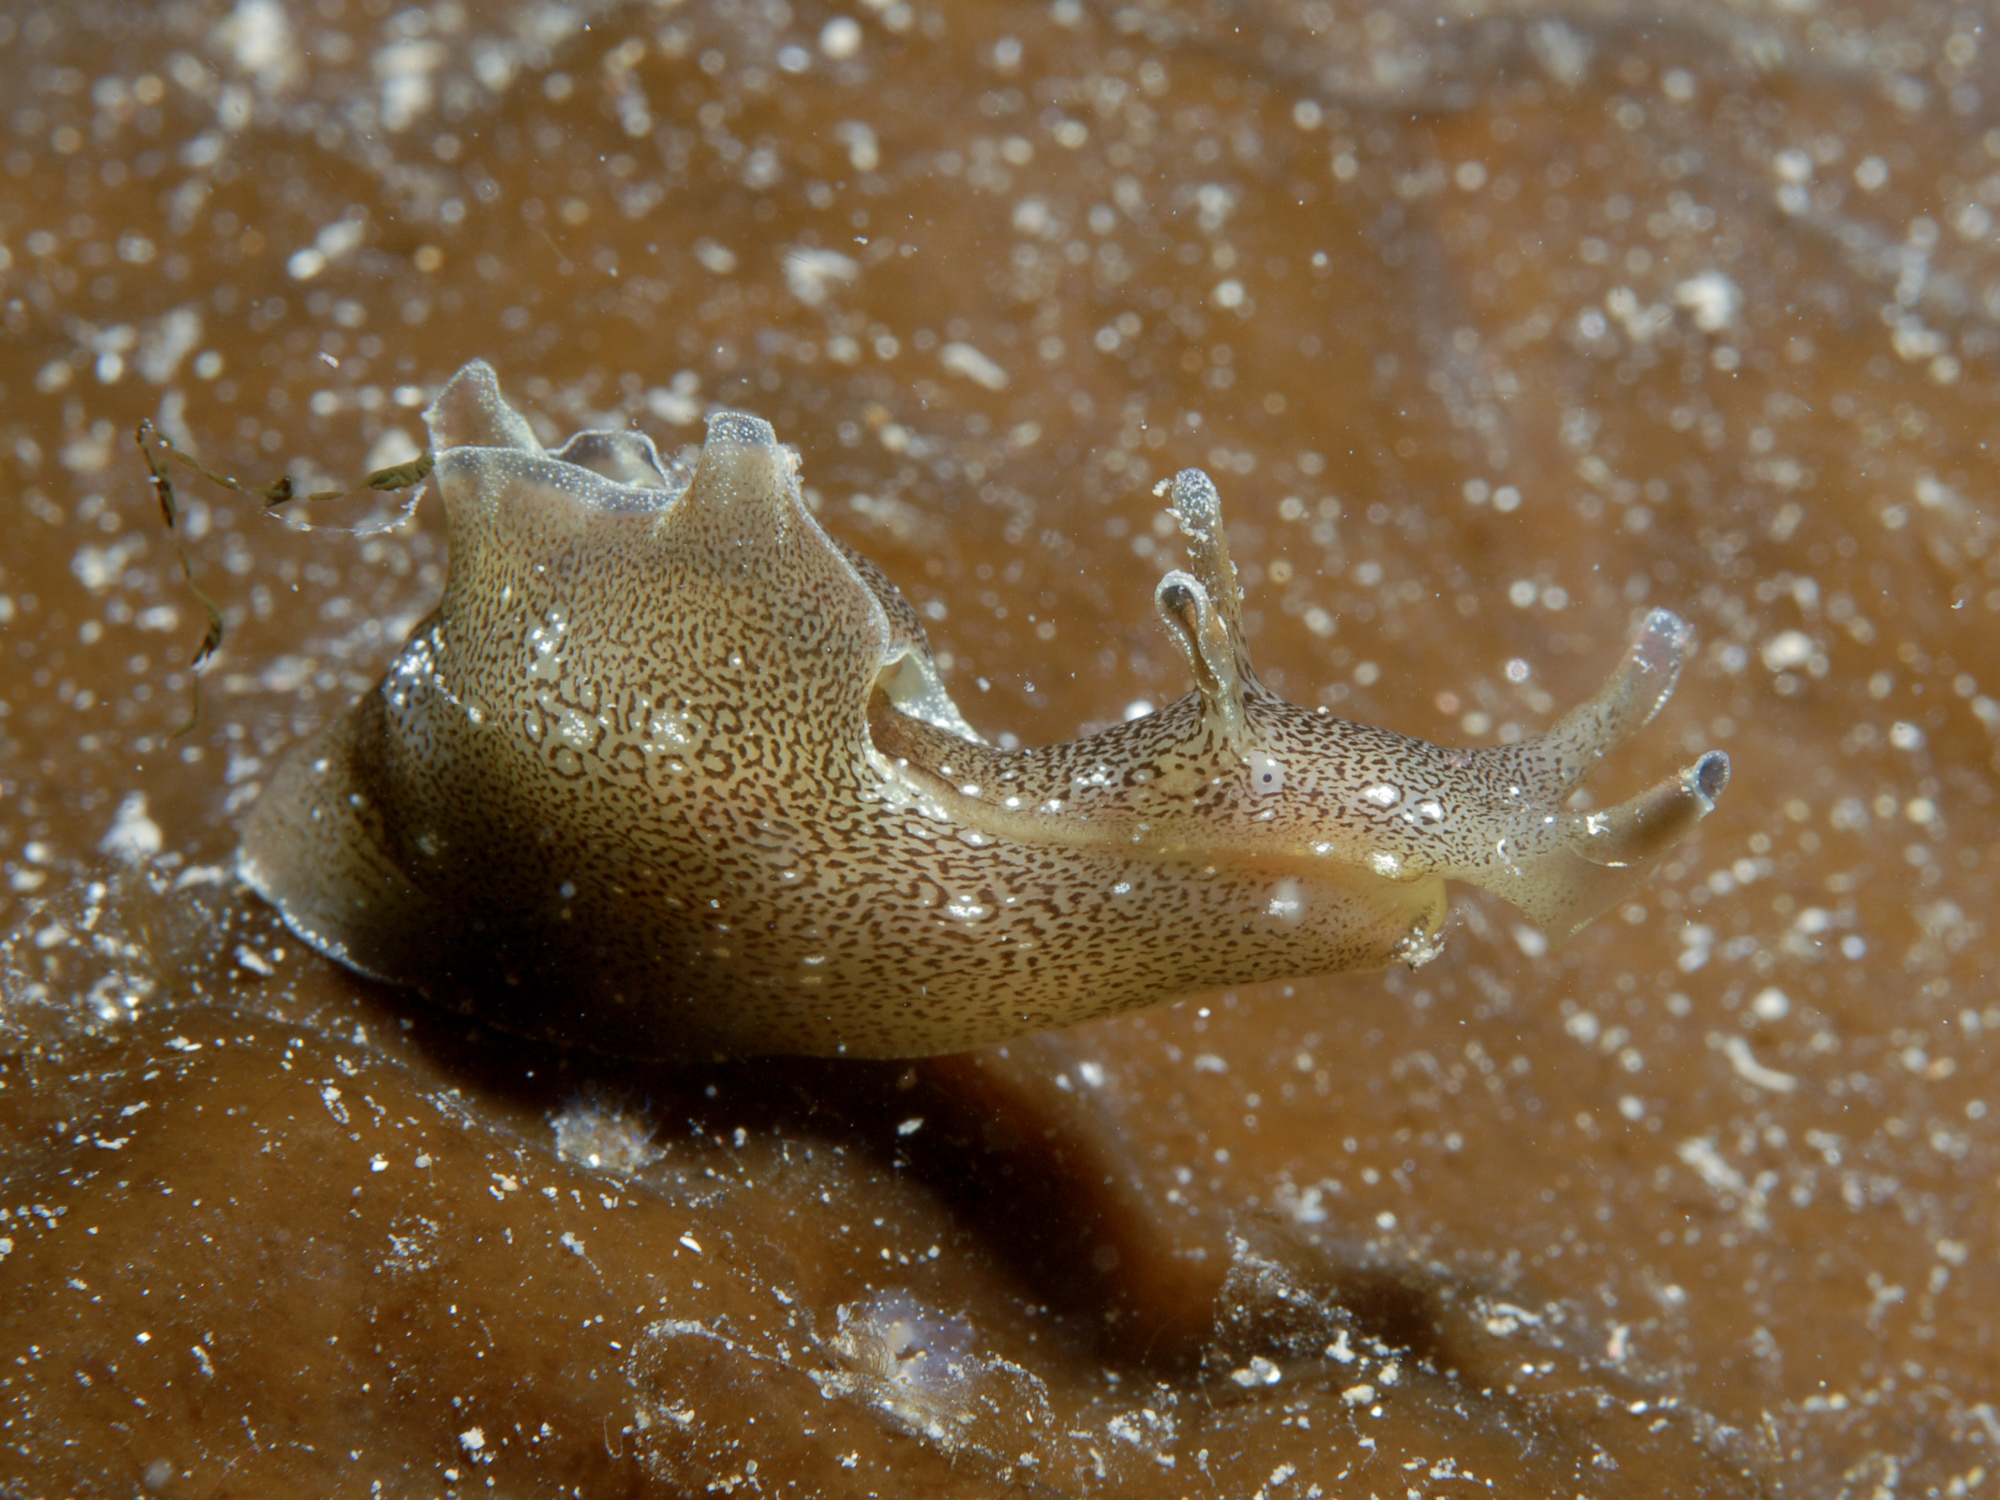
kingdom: Animalia
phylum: Mollusca
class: Gastropoda
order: Aplysiida
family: Aplysiidae
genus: Aplysia
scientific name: Aplysia punctata
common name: Common sea hare
